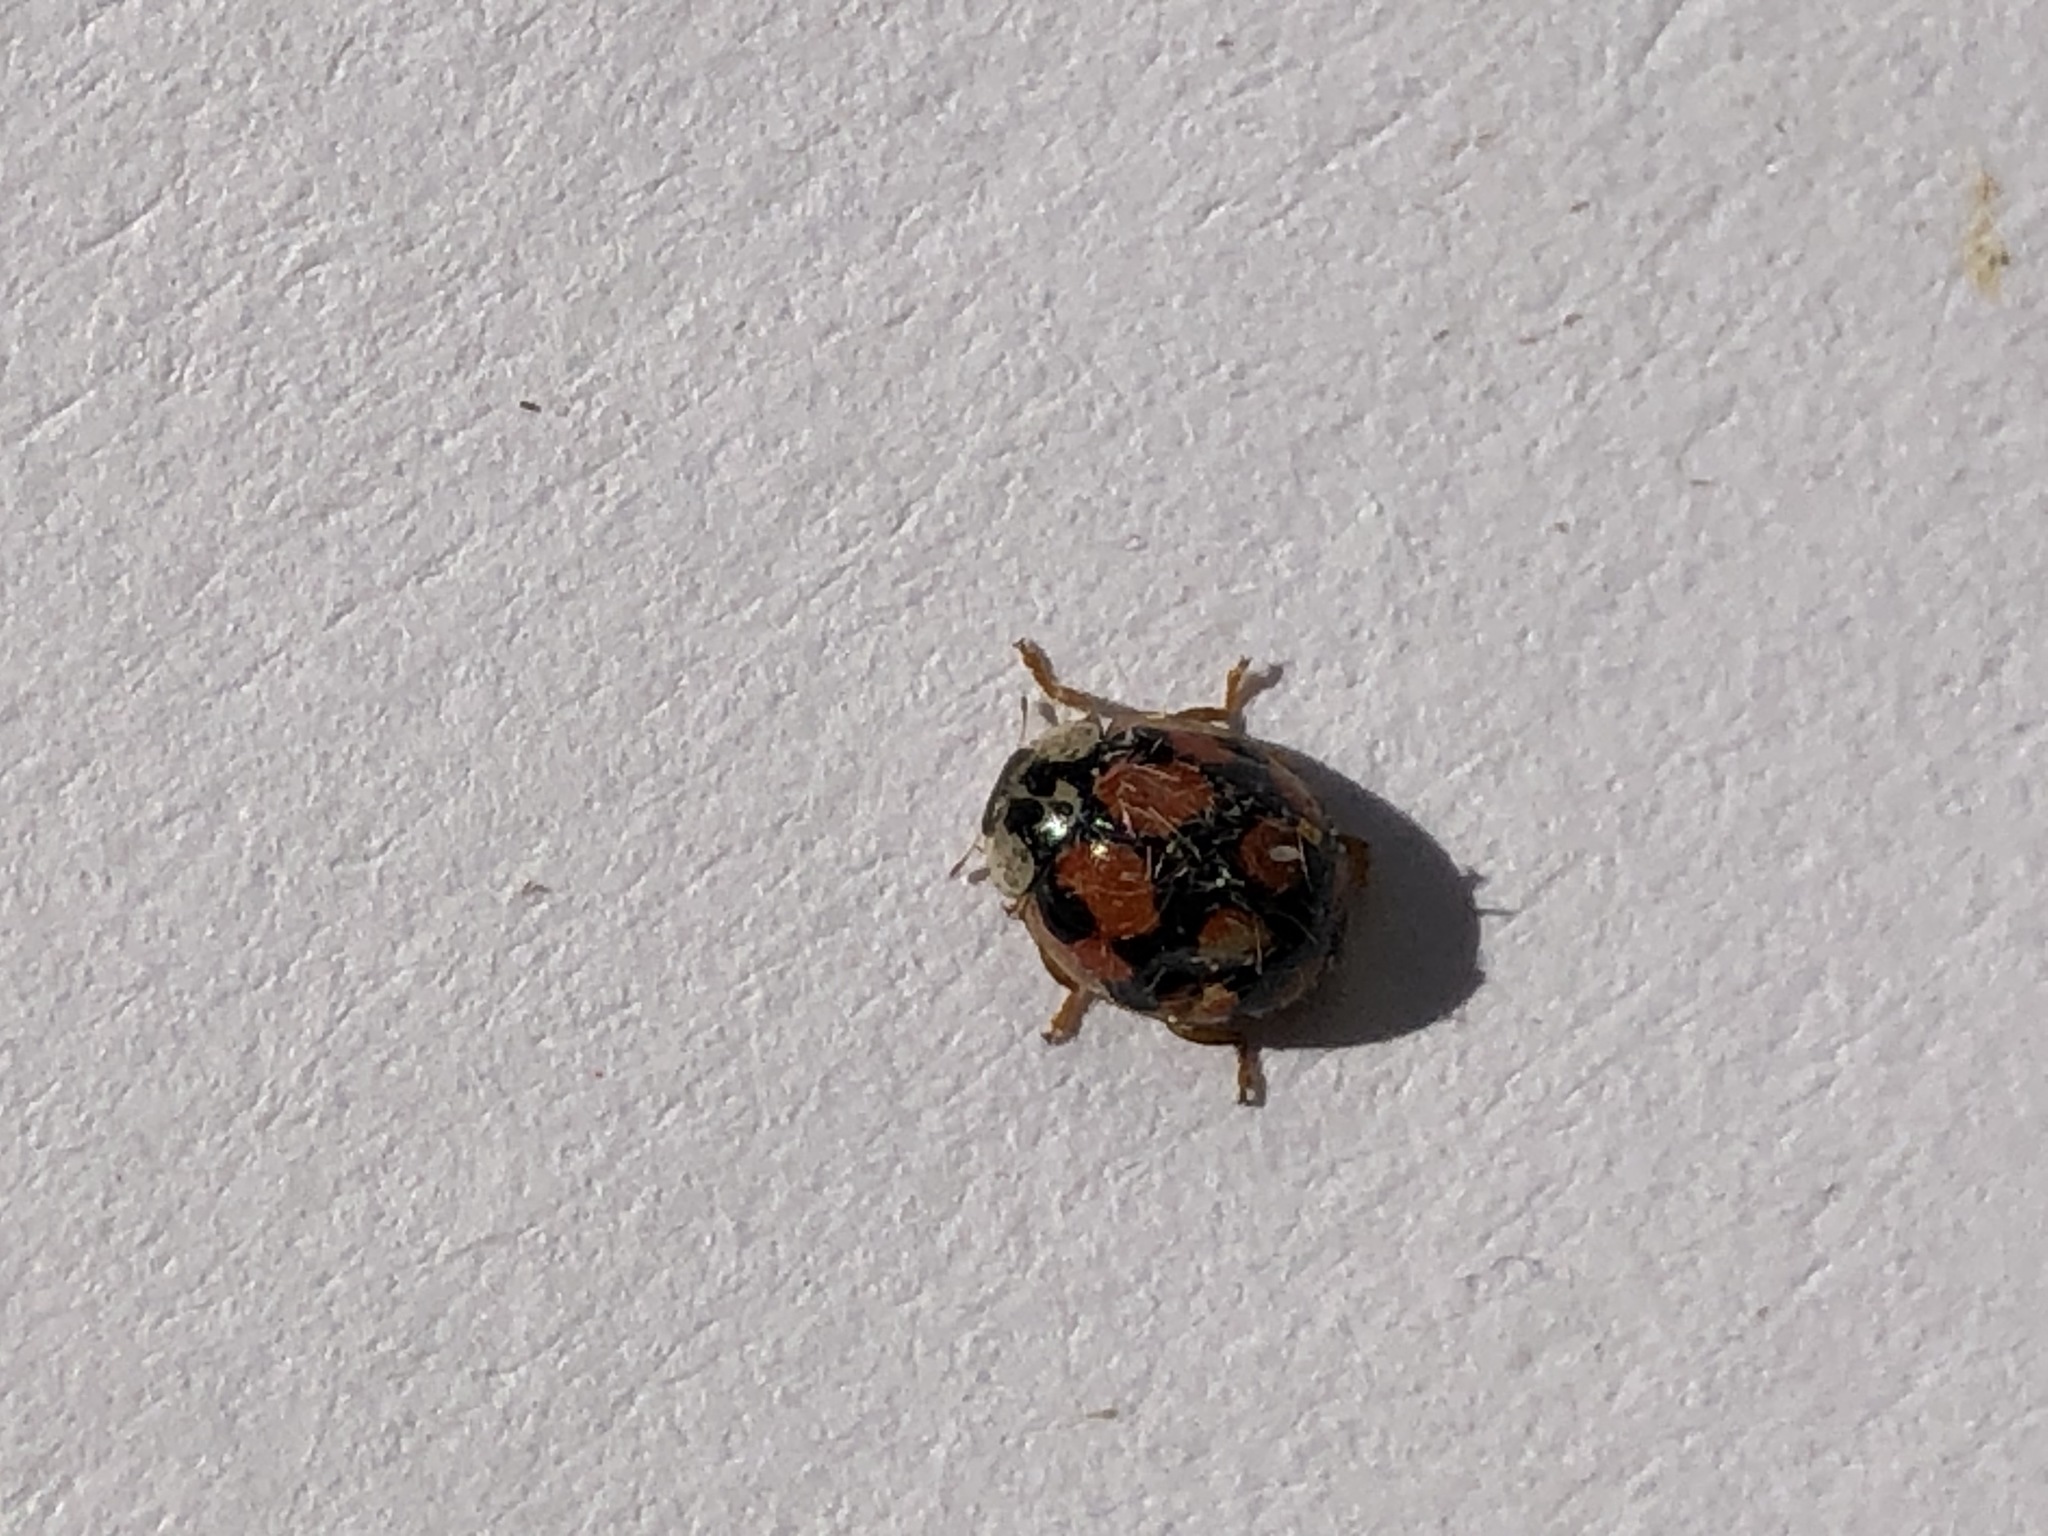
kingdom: Animalia
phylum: Arthropoda
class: Insecta
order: Coleoptera
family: Coccinellidae
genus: Adalia
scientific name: Adalia decempunctata
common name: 10-spot ladybird
